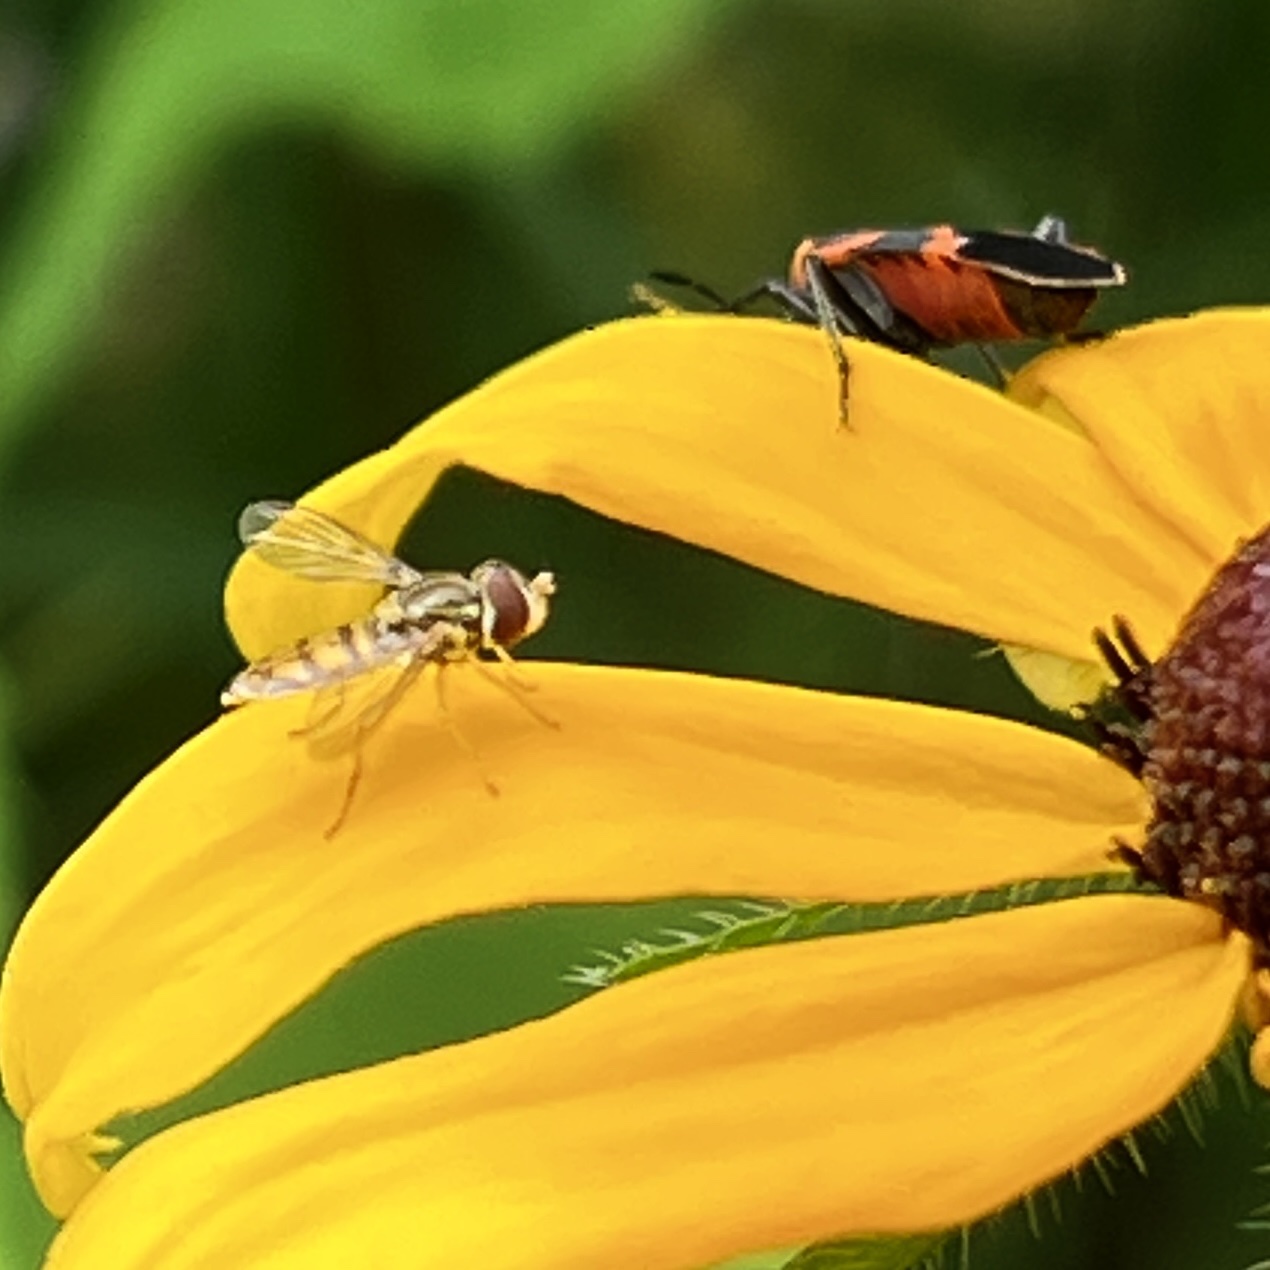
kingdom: Animalia
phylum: Arthropoda
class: Insecta
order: Diptera
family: Syrphidae
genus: Toxomerus
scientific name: Toxomerus marginatus
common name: Syrphid fly
